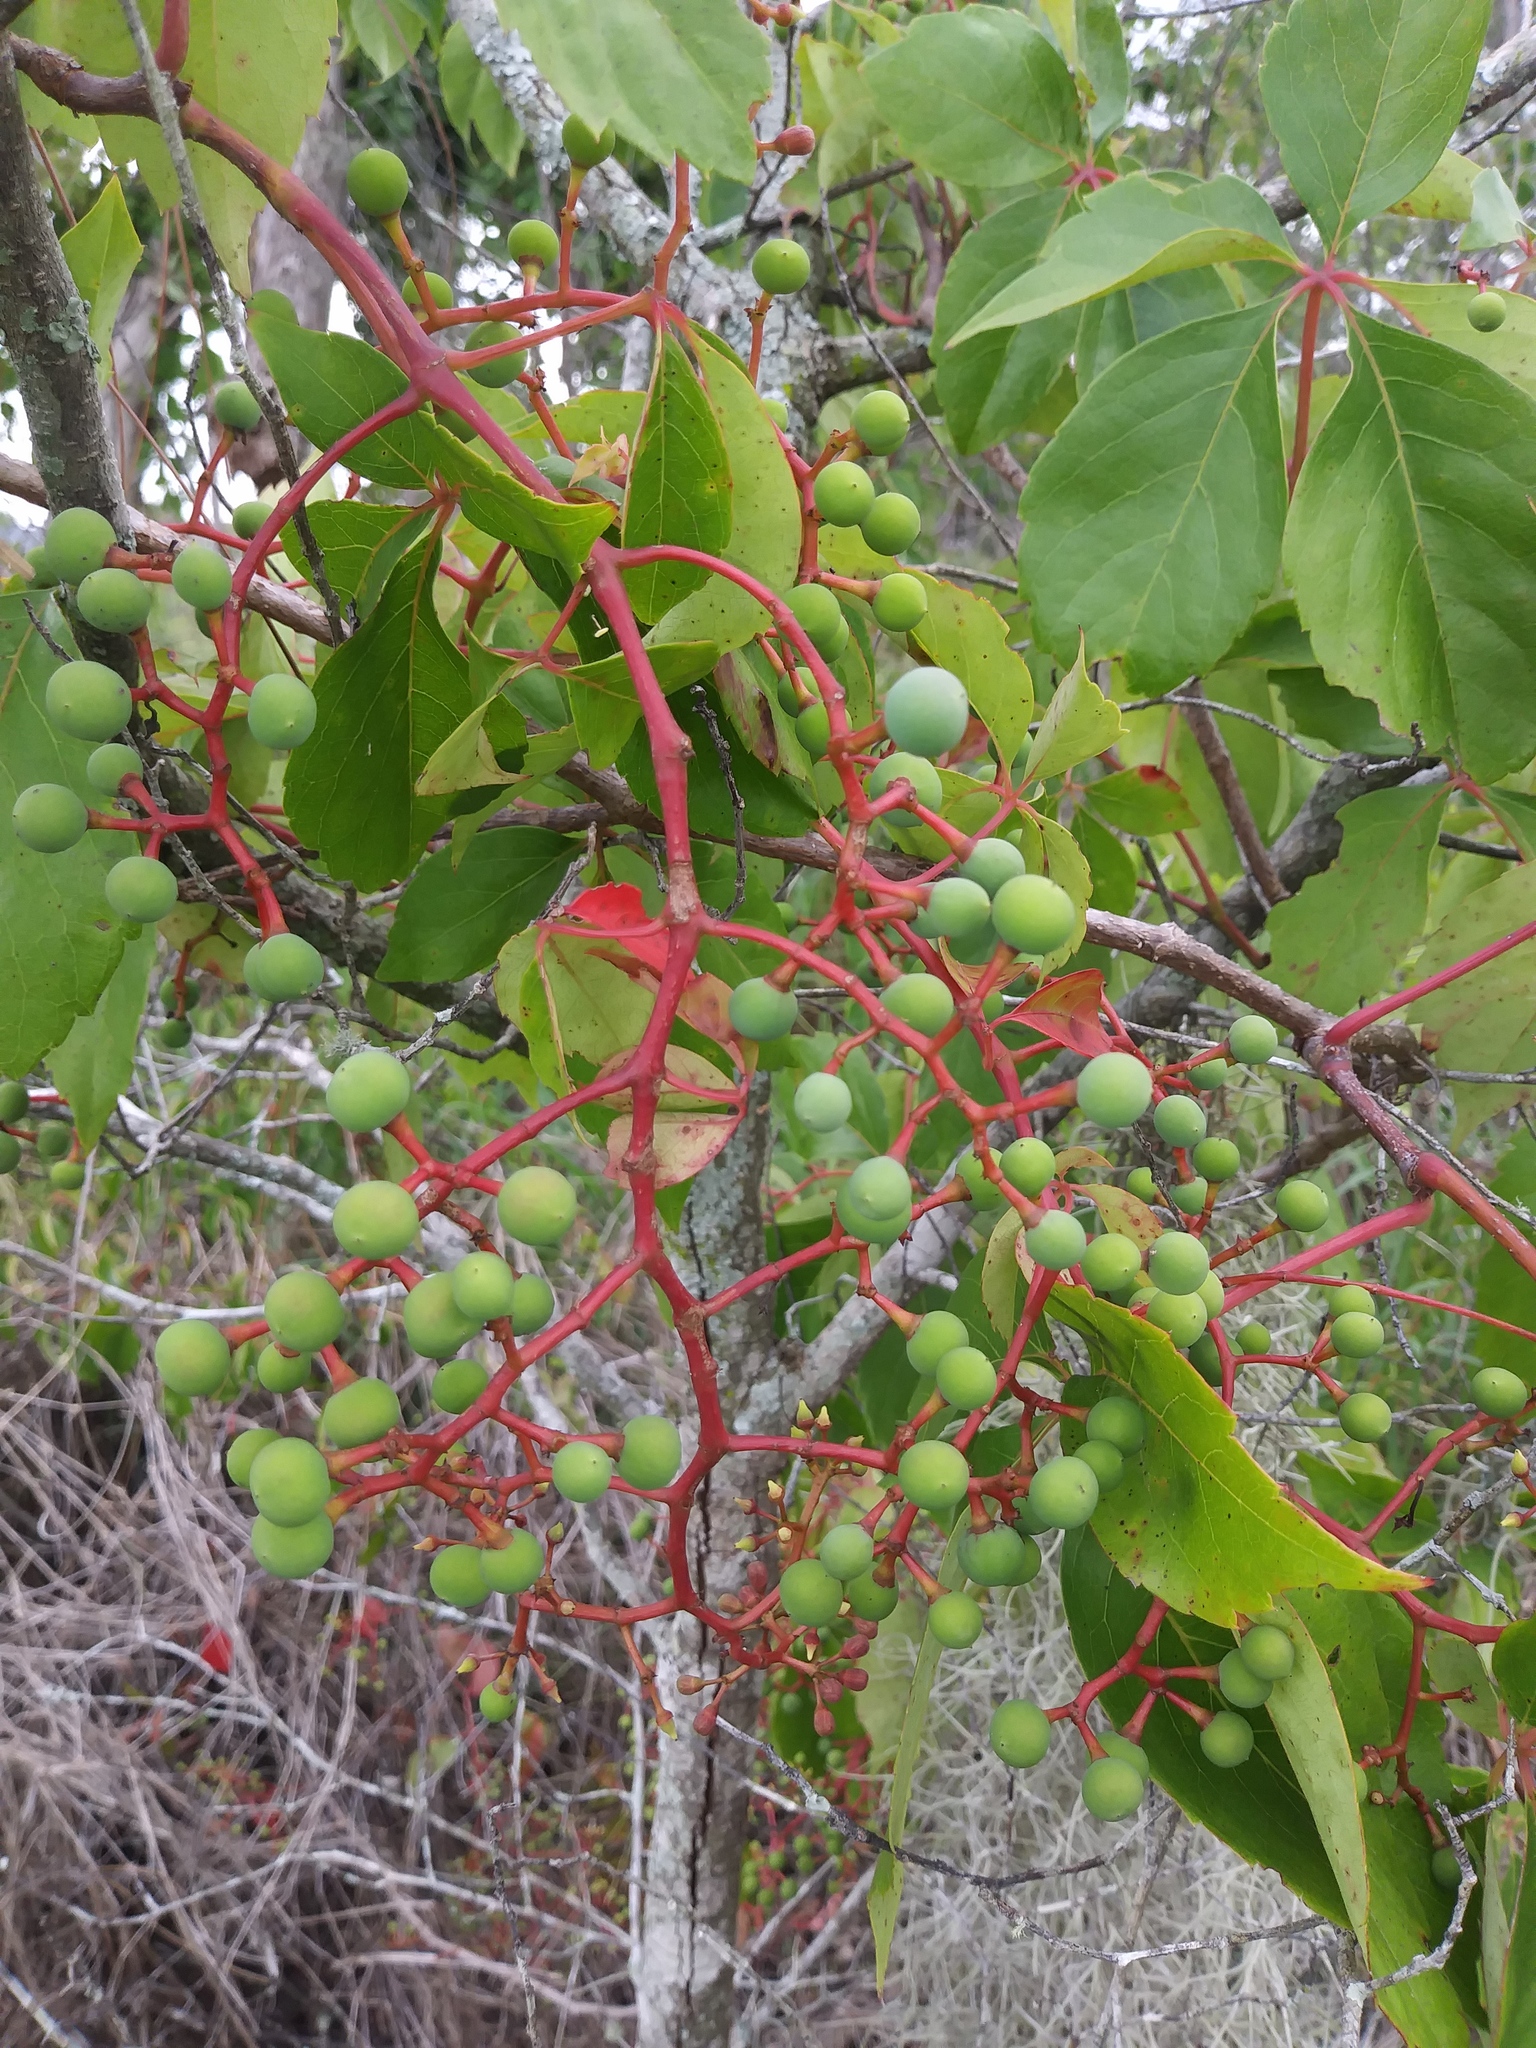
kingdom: Plantae
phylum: Tracheophyta
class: Magnoliopsida
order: Vitales
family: Vitaceae
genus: Parthenocissus
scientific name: Parthenocissus quinquefolia
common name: Virginia-creeper
